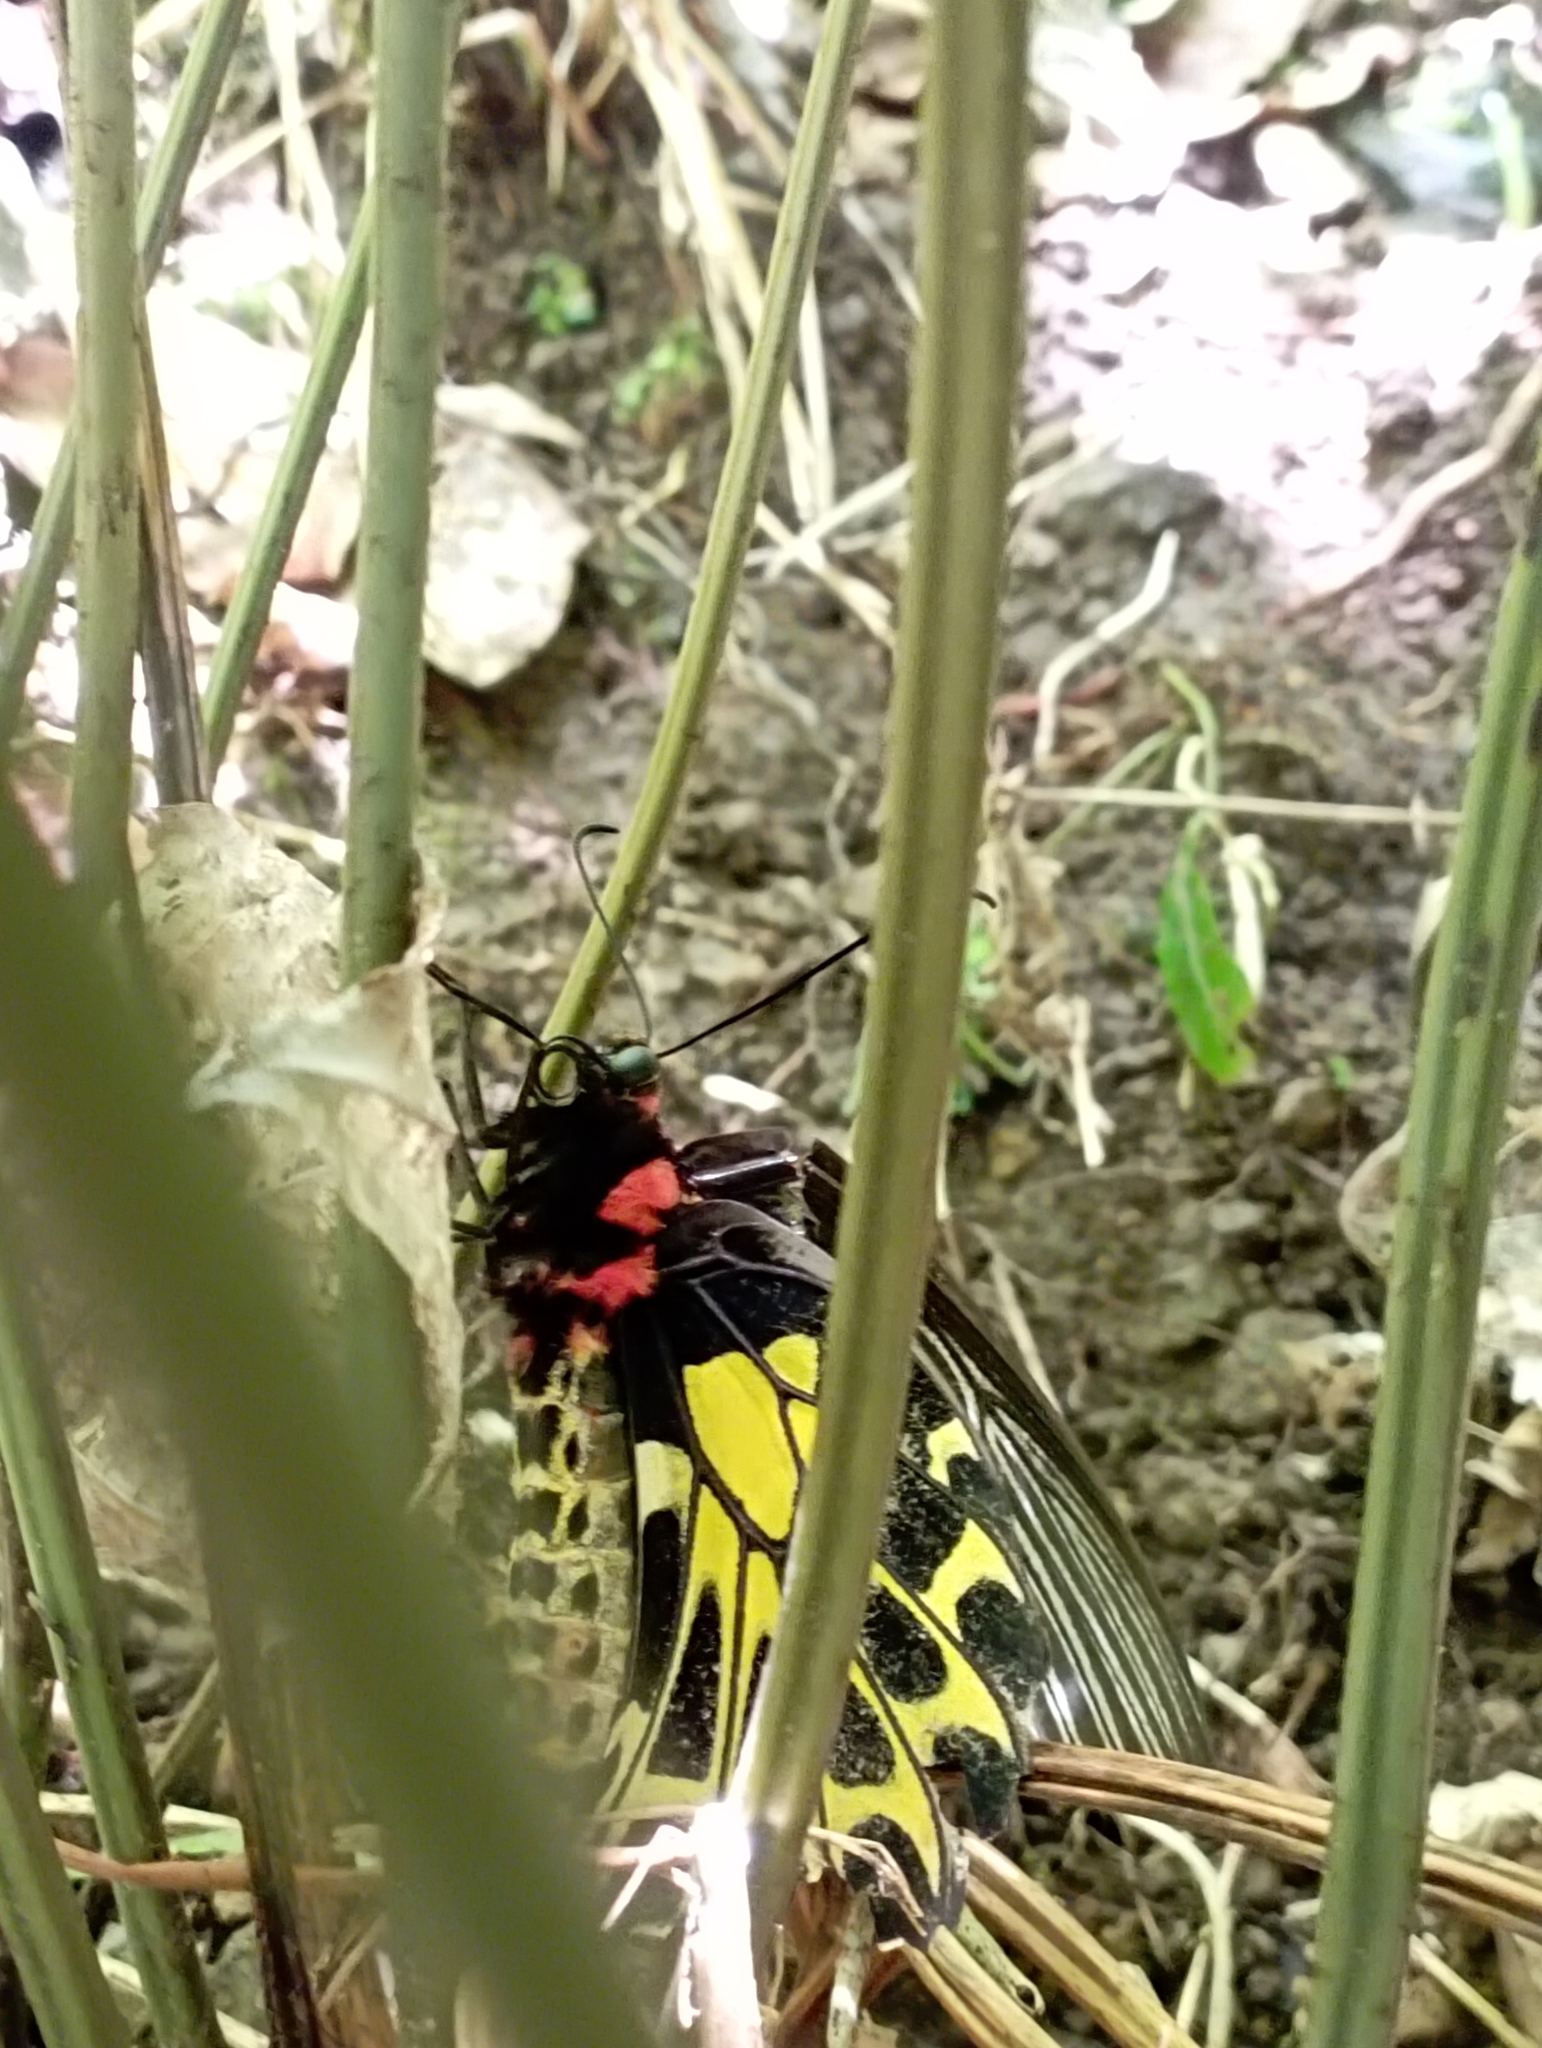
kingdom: Animalia
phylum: Arthropoda
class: Insecta
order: Lepidoptera
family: Papilionidae
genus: Troides
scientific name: Troides aeacus
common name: Golden birdwing
